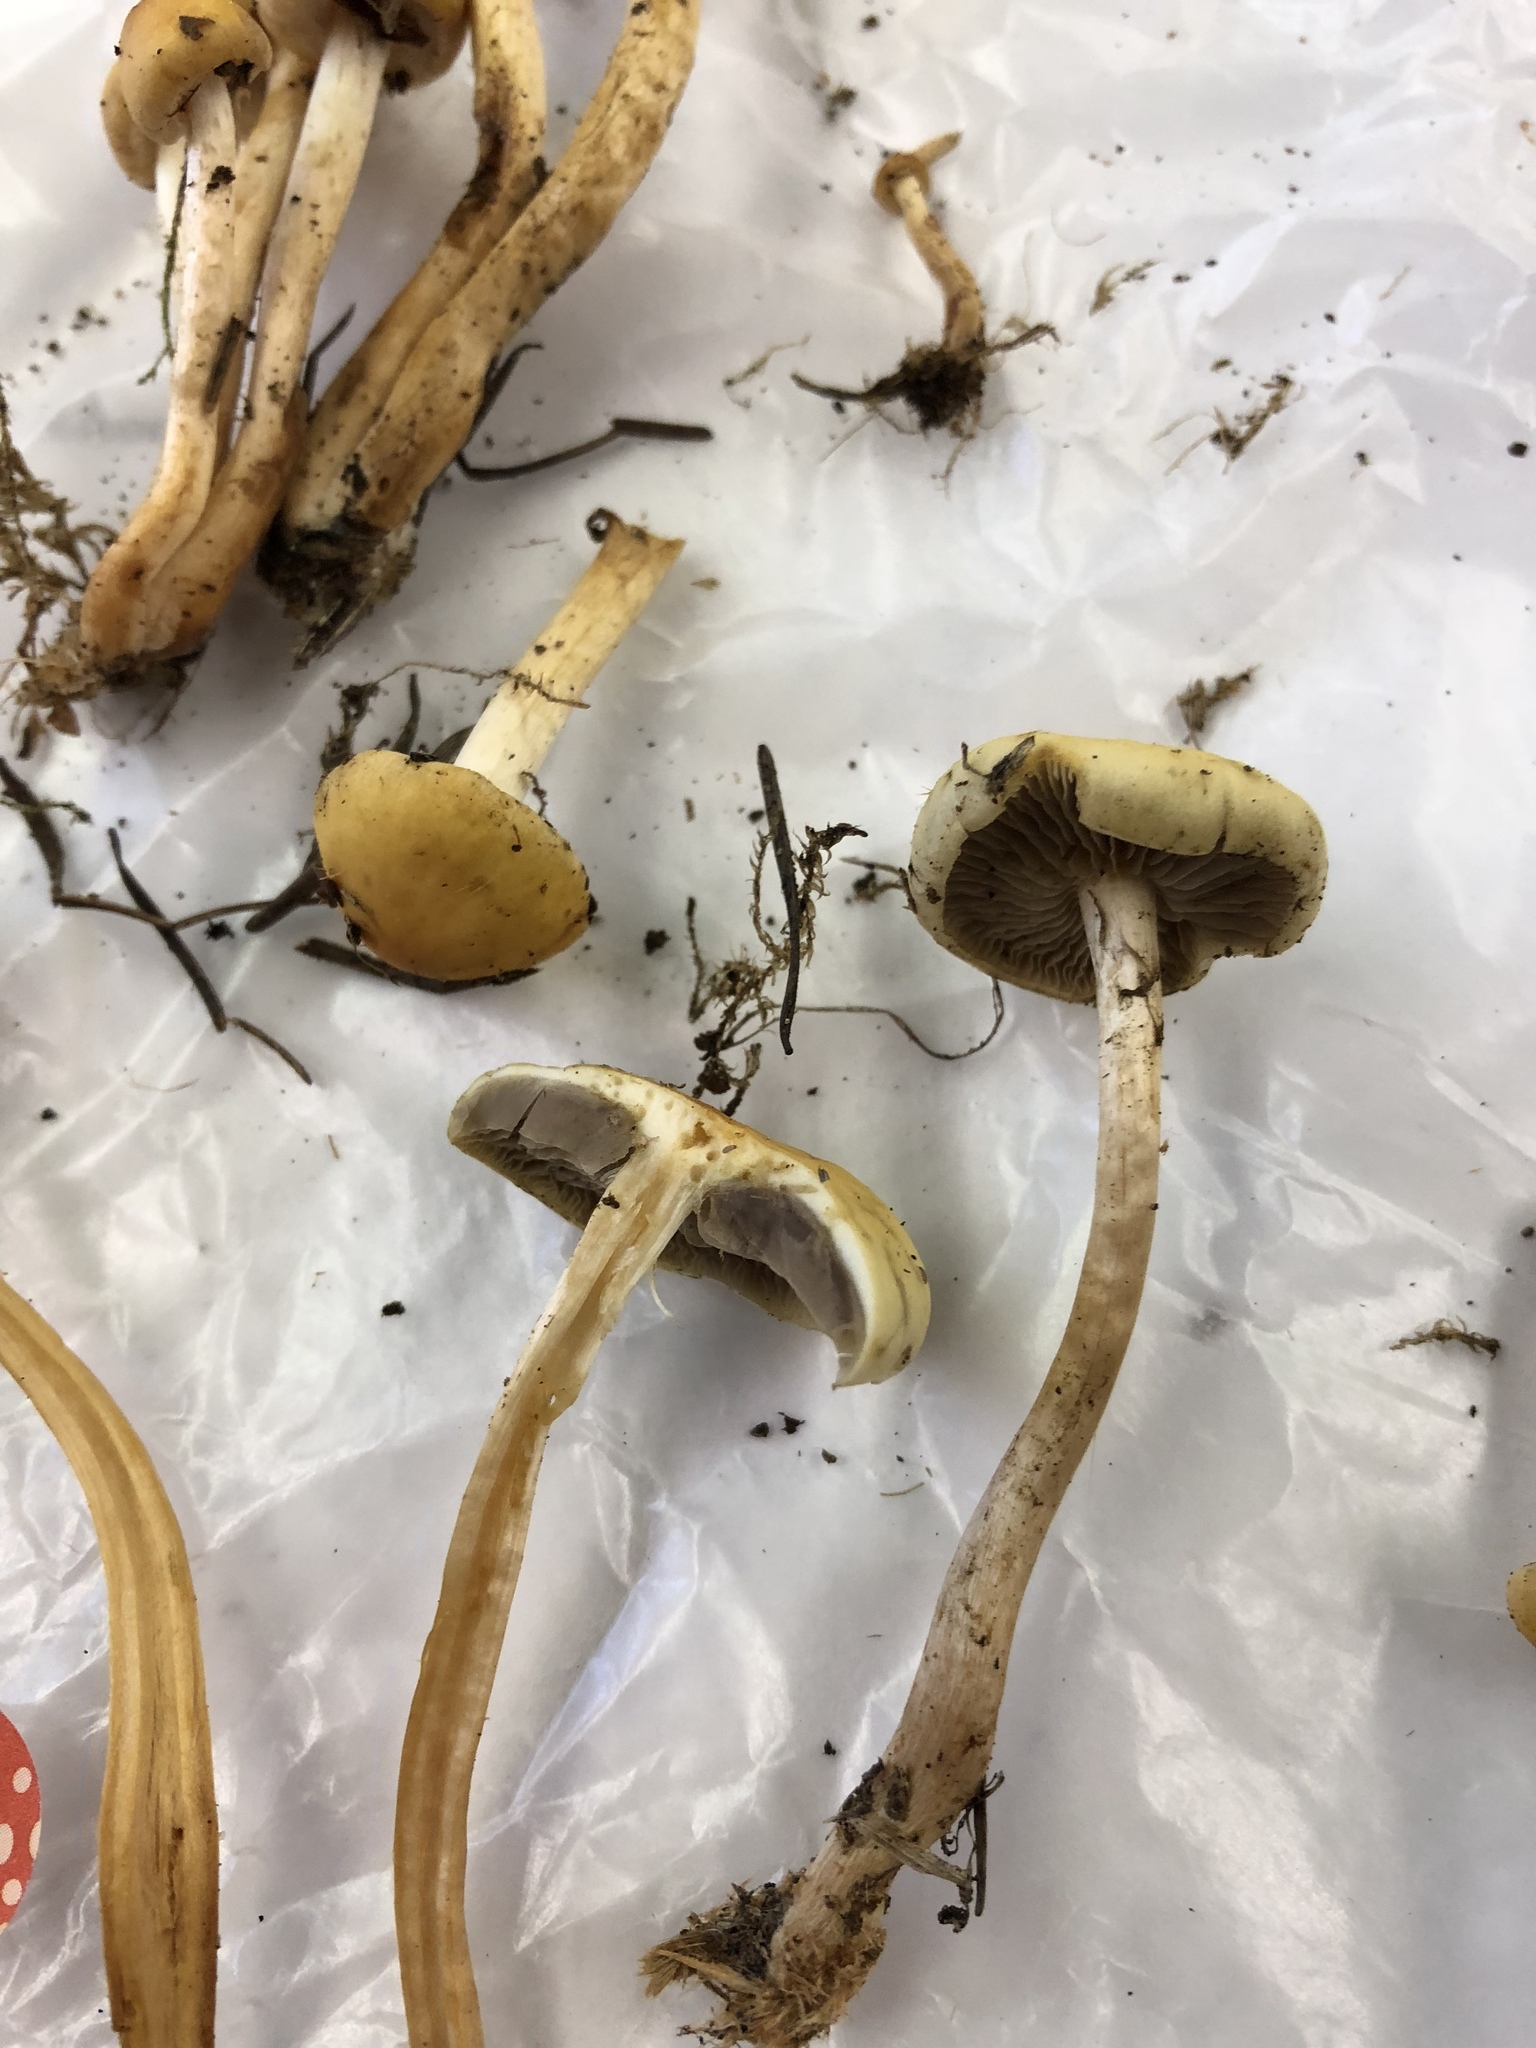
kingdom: Fungi
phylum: Basidiomycota
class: Agaricomycetes
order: Agaricales
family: Strophariaceae
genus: Hypholoma
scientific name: Hypholoma fasciculare
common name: Sulphur tuft
